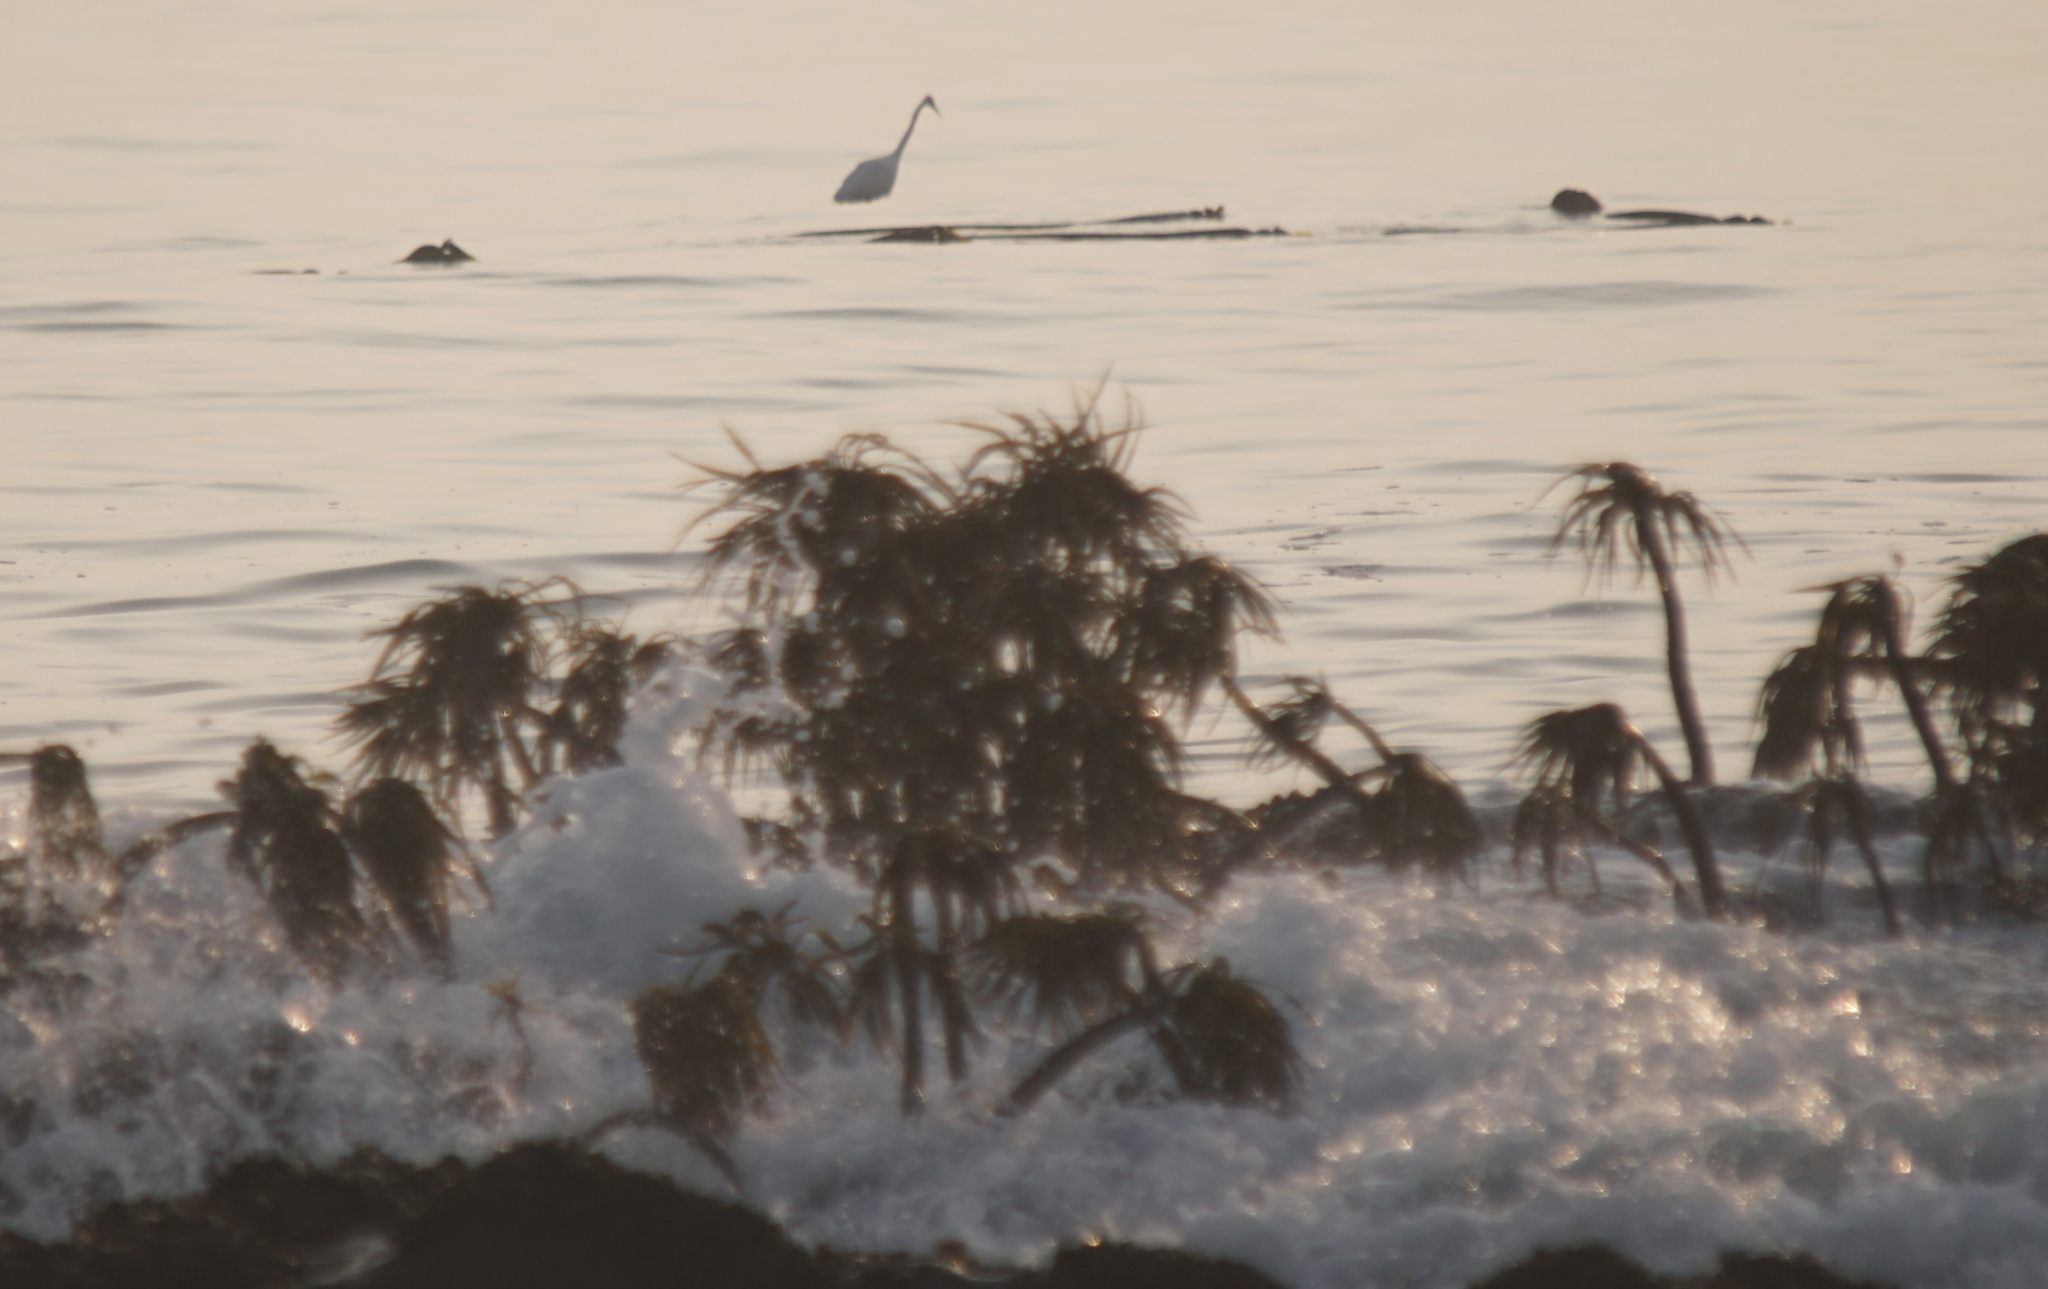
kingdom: Animalia
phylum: Chordata
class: Aves
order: Pelecaniformes
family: Ardeidae
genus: Ardea
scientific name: Ardea alba
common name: Great egret
